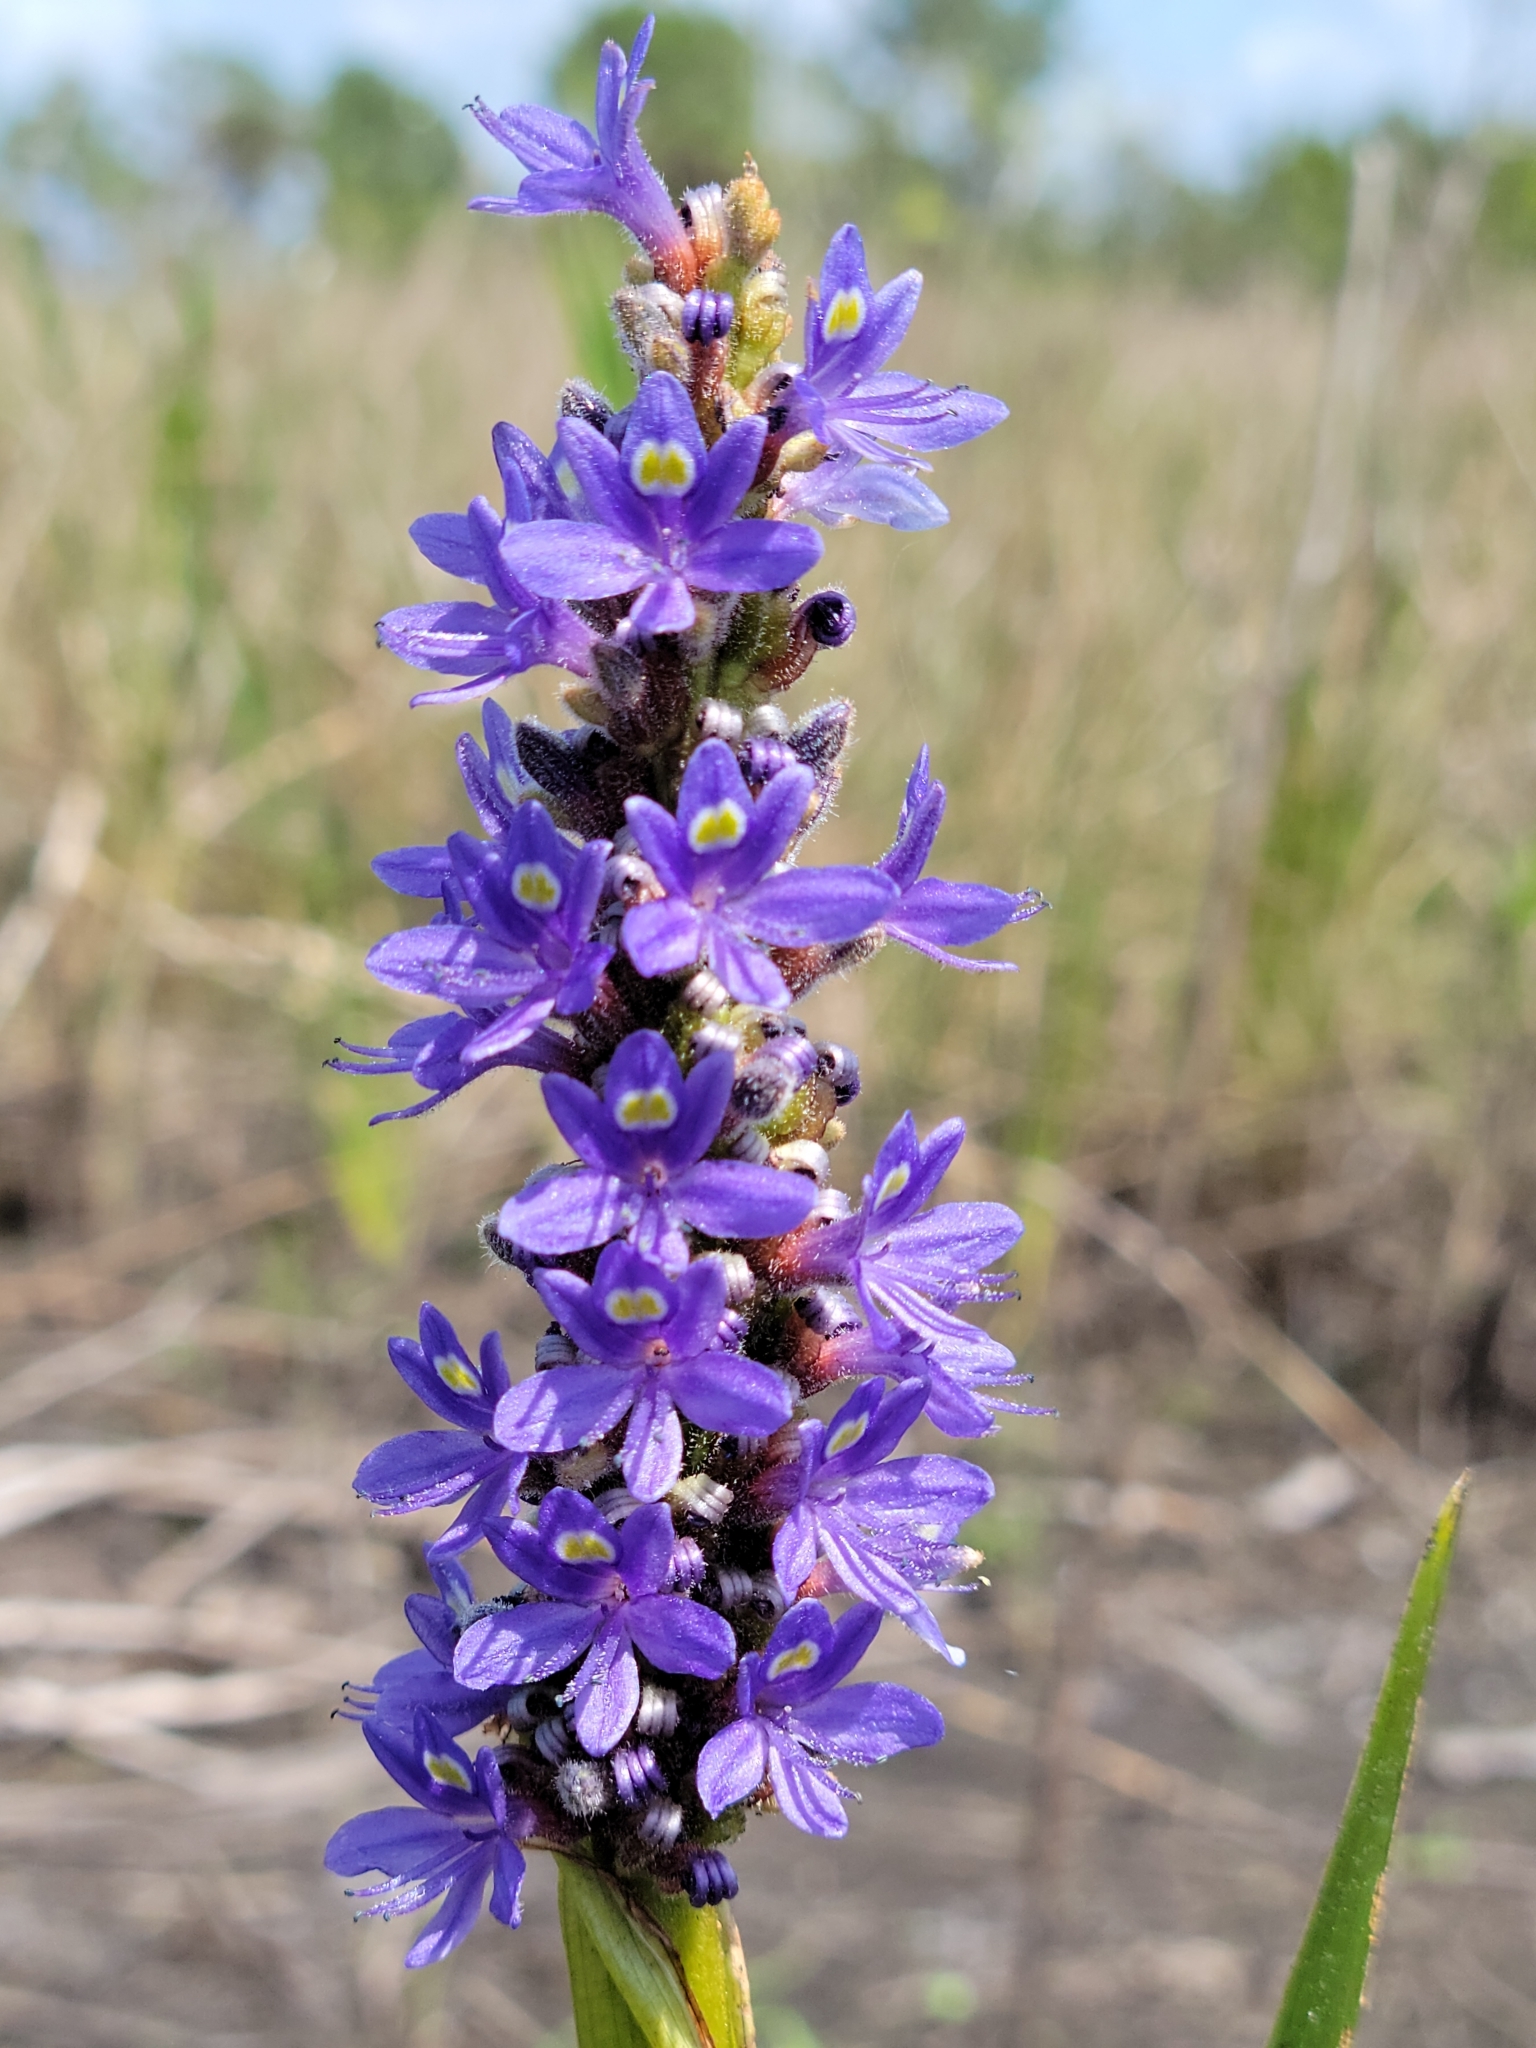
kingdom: Plantae
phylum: Tracheophyta
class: Liliopsida
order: Commelinales
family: Pontederiaceae
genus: Pontederia
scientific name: Pontederia cordata
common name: Pickerelweed
